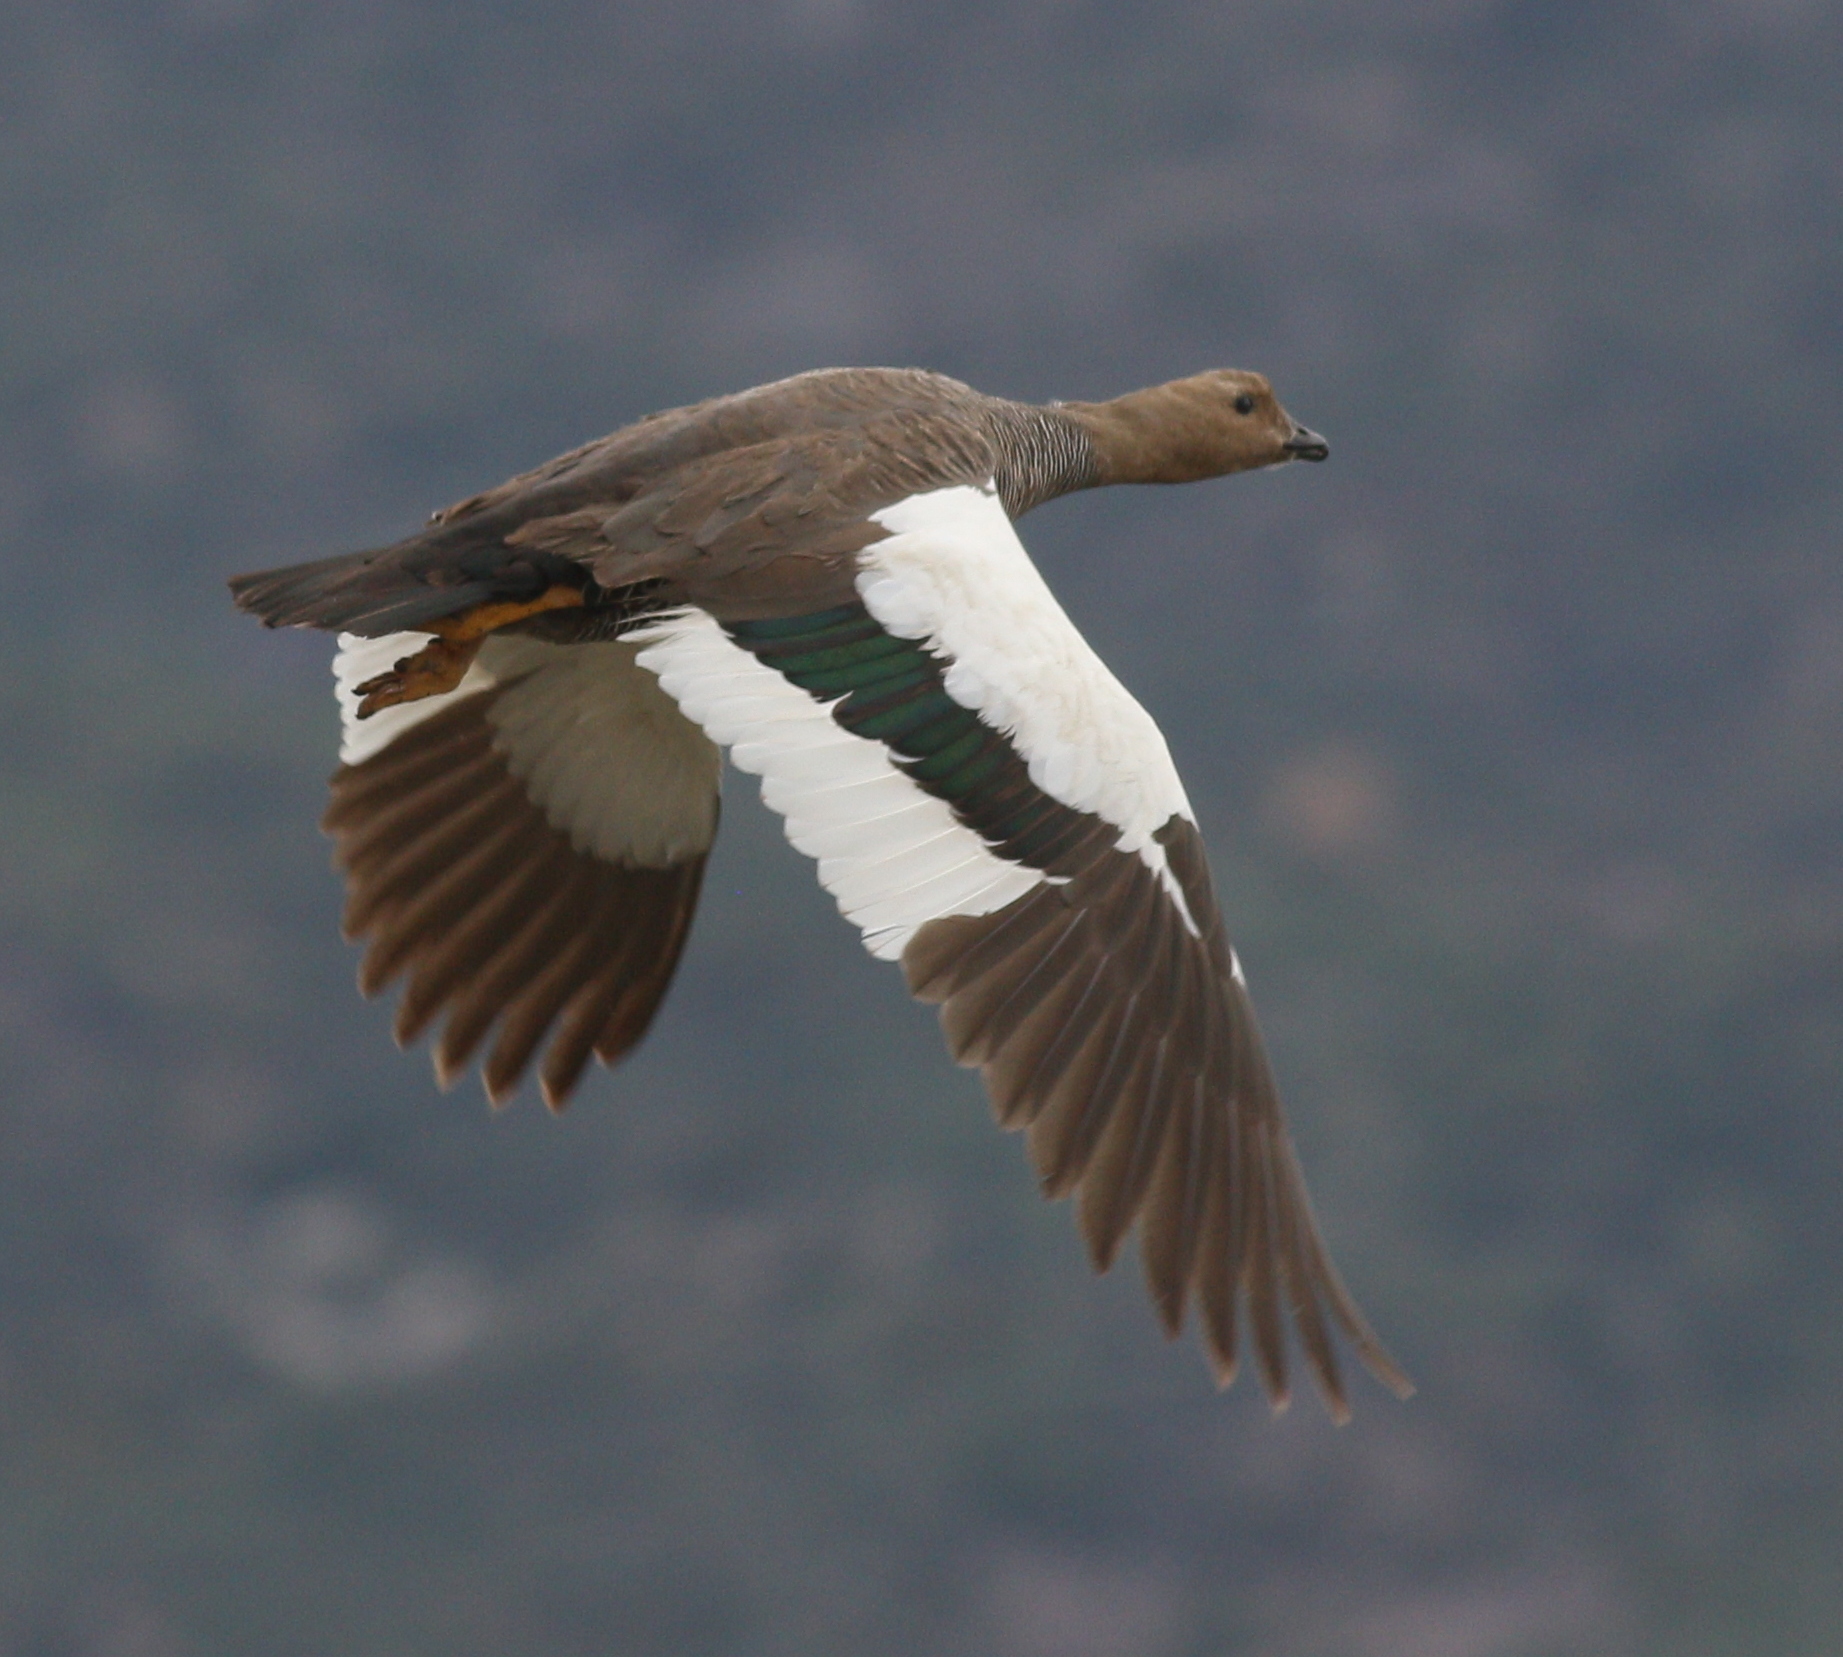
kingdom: Animalia
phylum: Chordata
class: Aves
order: Anseriformes
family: Anatidae
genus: Chloephaga
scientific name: Chloephaga picta
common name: Upland goose
